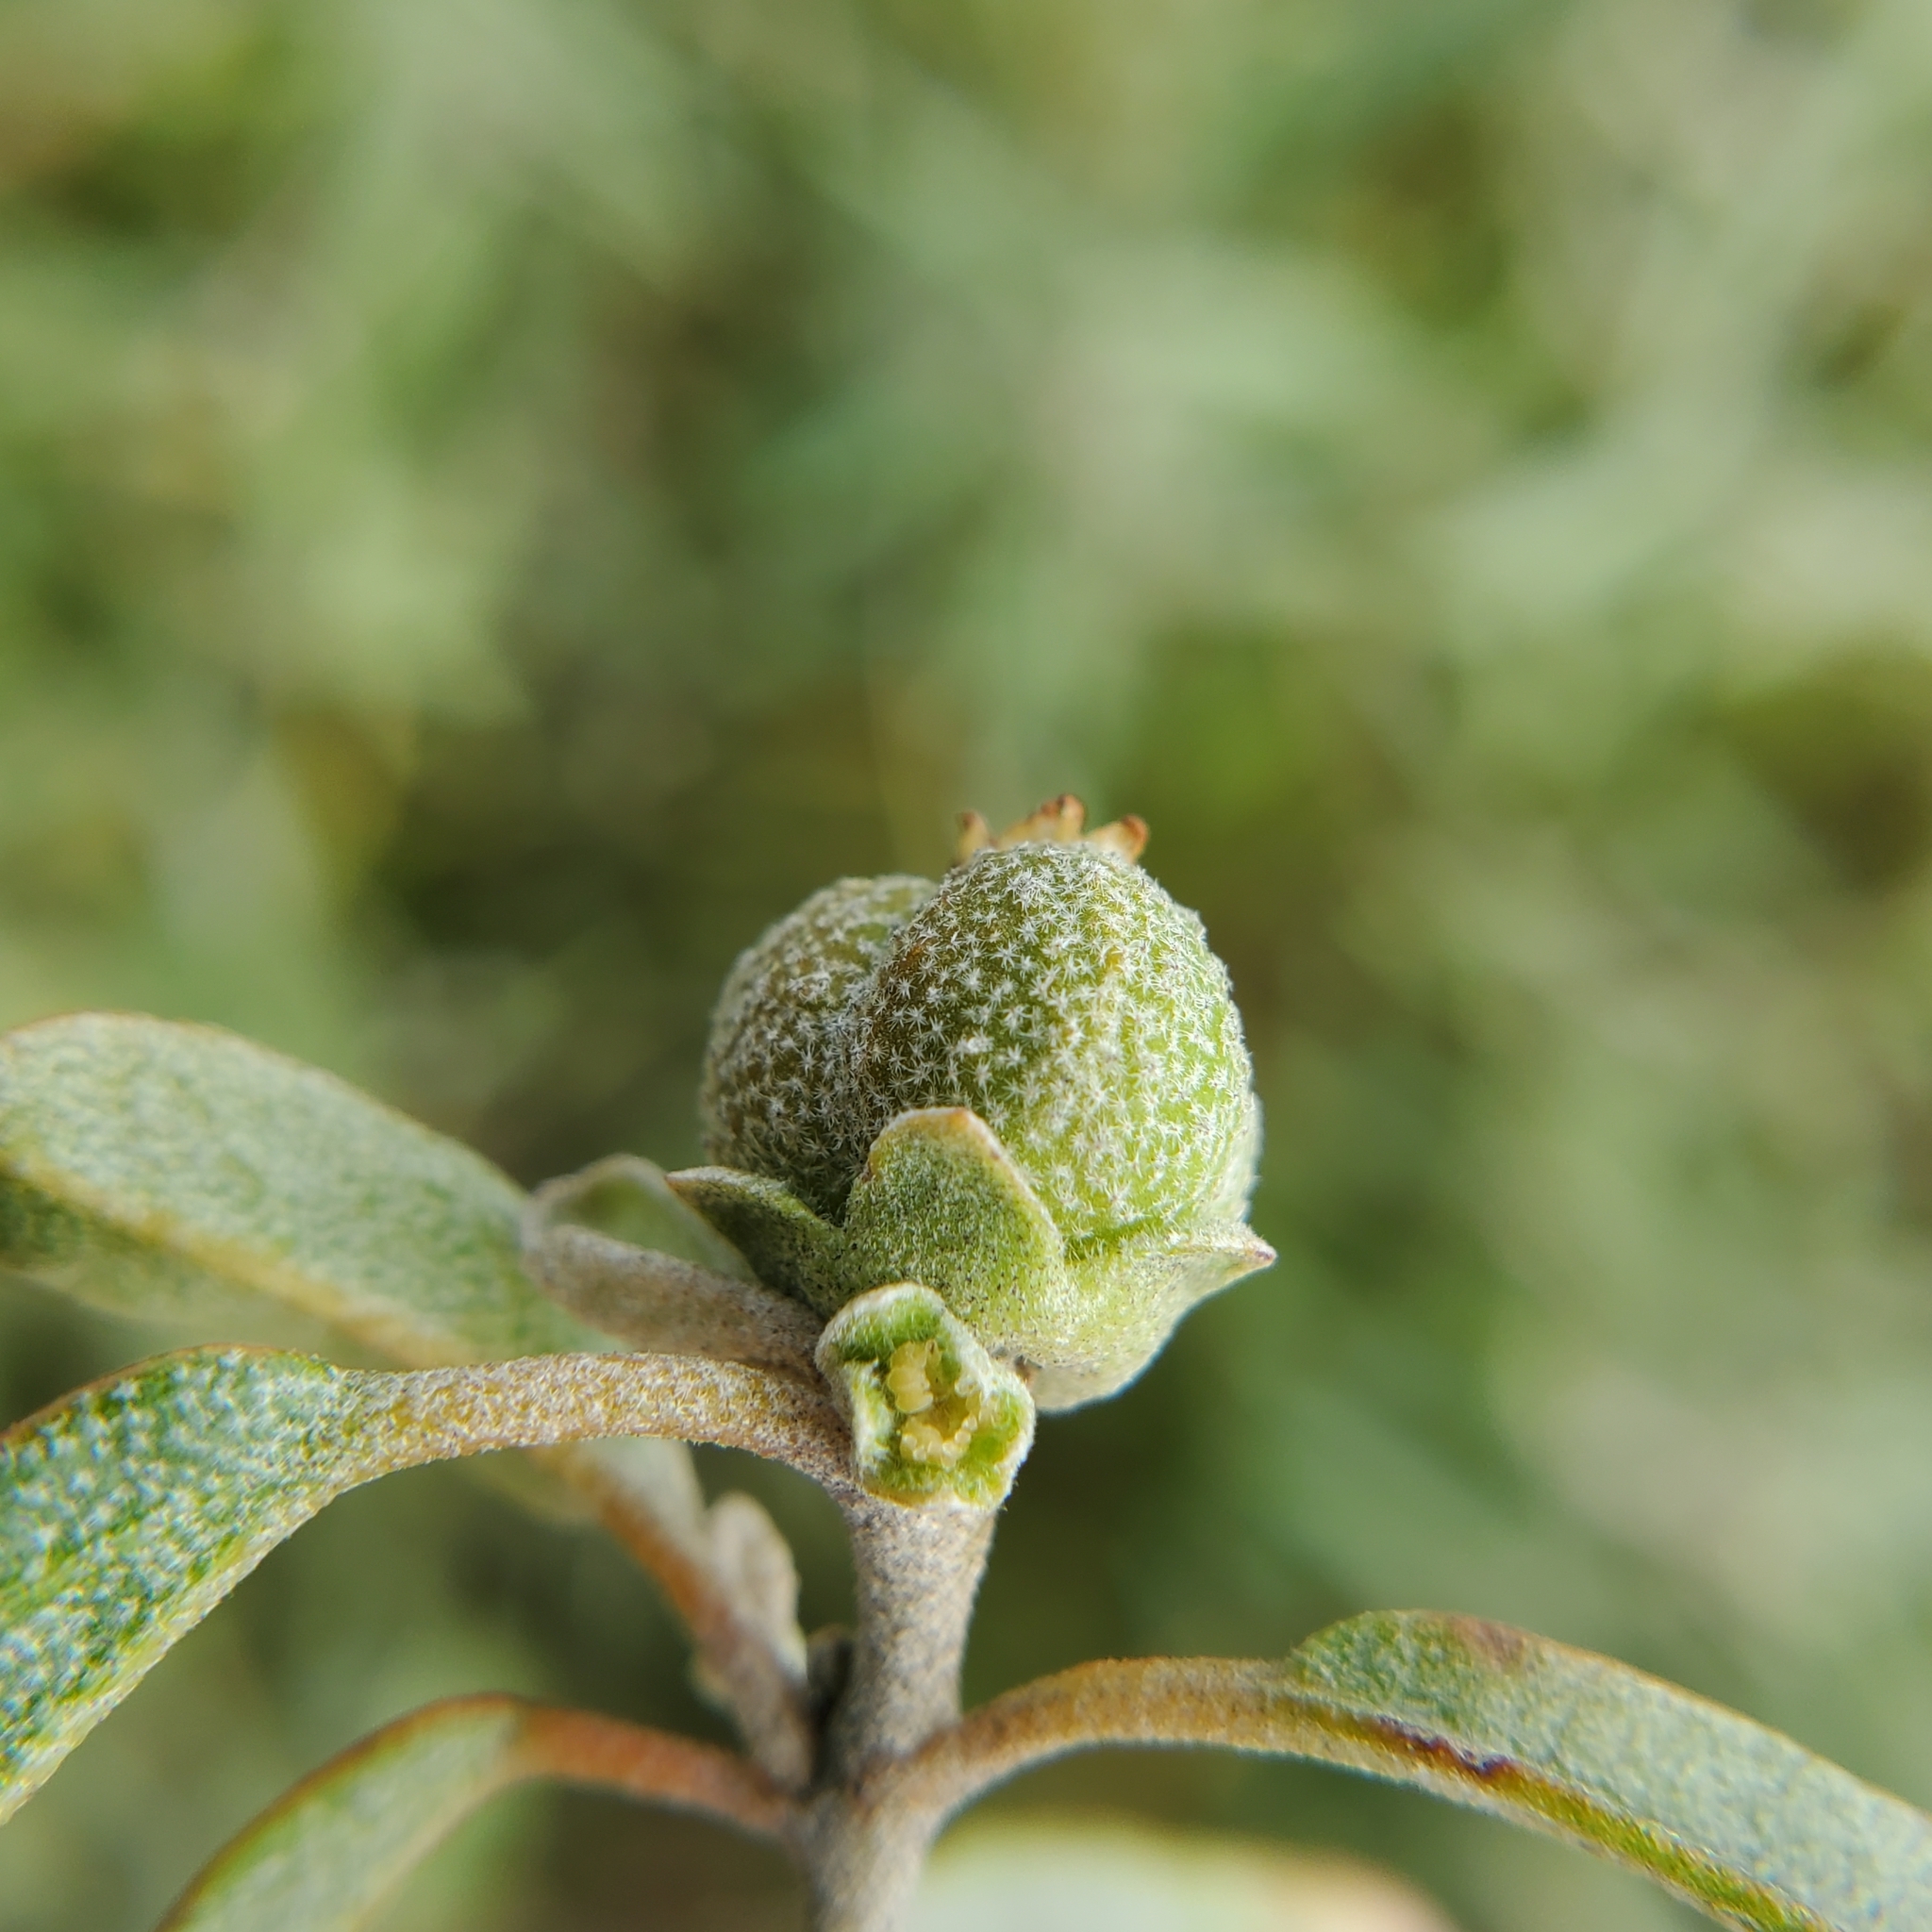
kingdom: Plantae
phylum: Tracheophyta
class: Magnoliopsida
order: Malpighiales
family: Euphorbiaceae
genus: Croton
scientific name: Croton californicus
